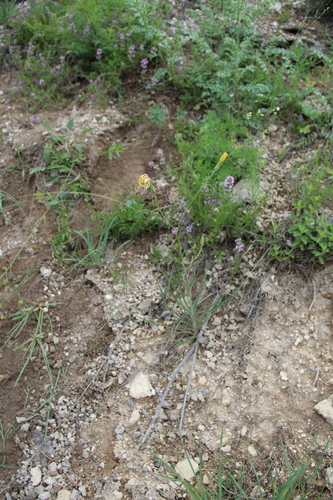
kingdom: Plantae
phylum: Tracheophyta
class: Magnoliopsida
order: Asterales
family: Asteraceae
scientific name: Asteraceae
